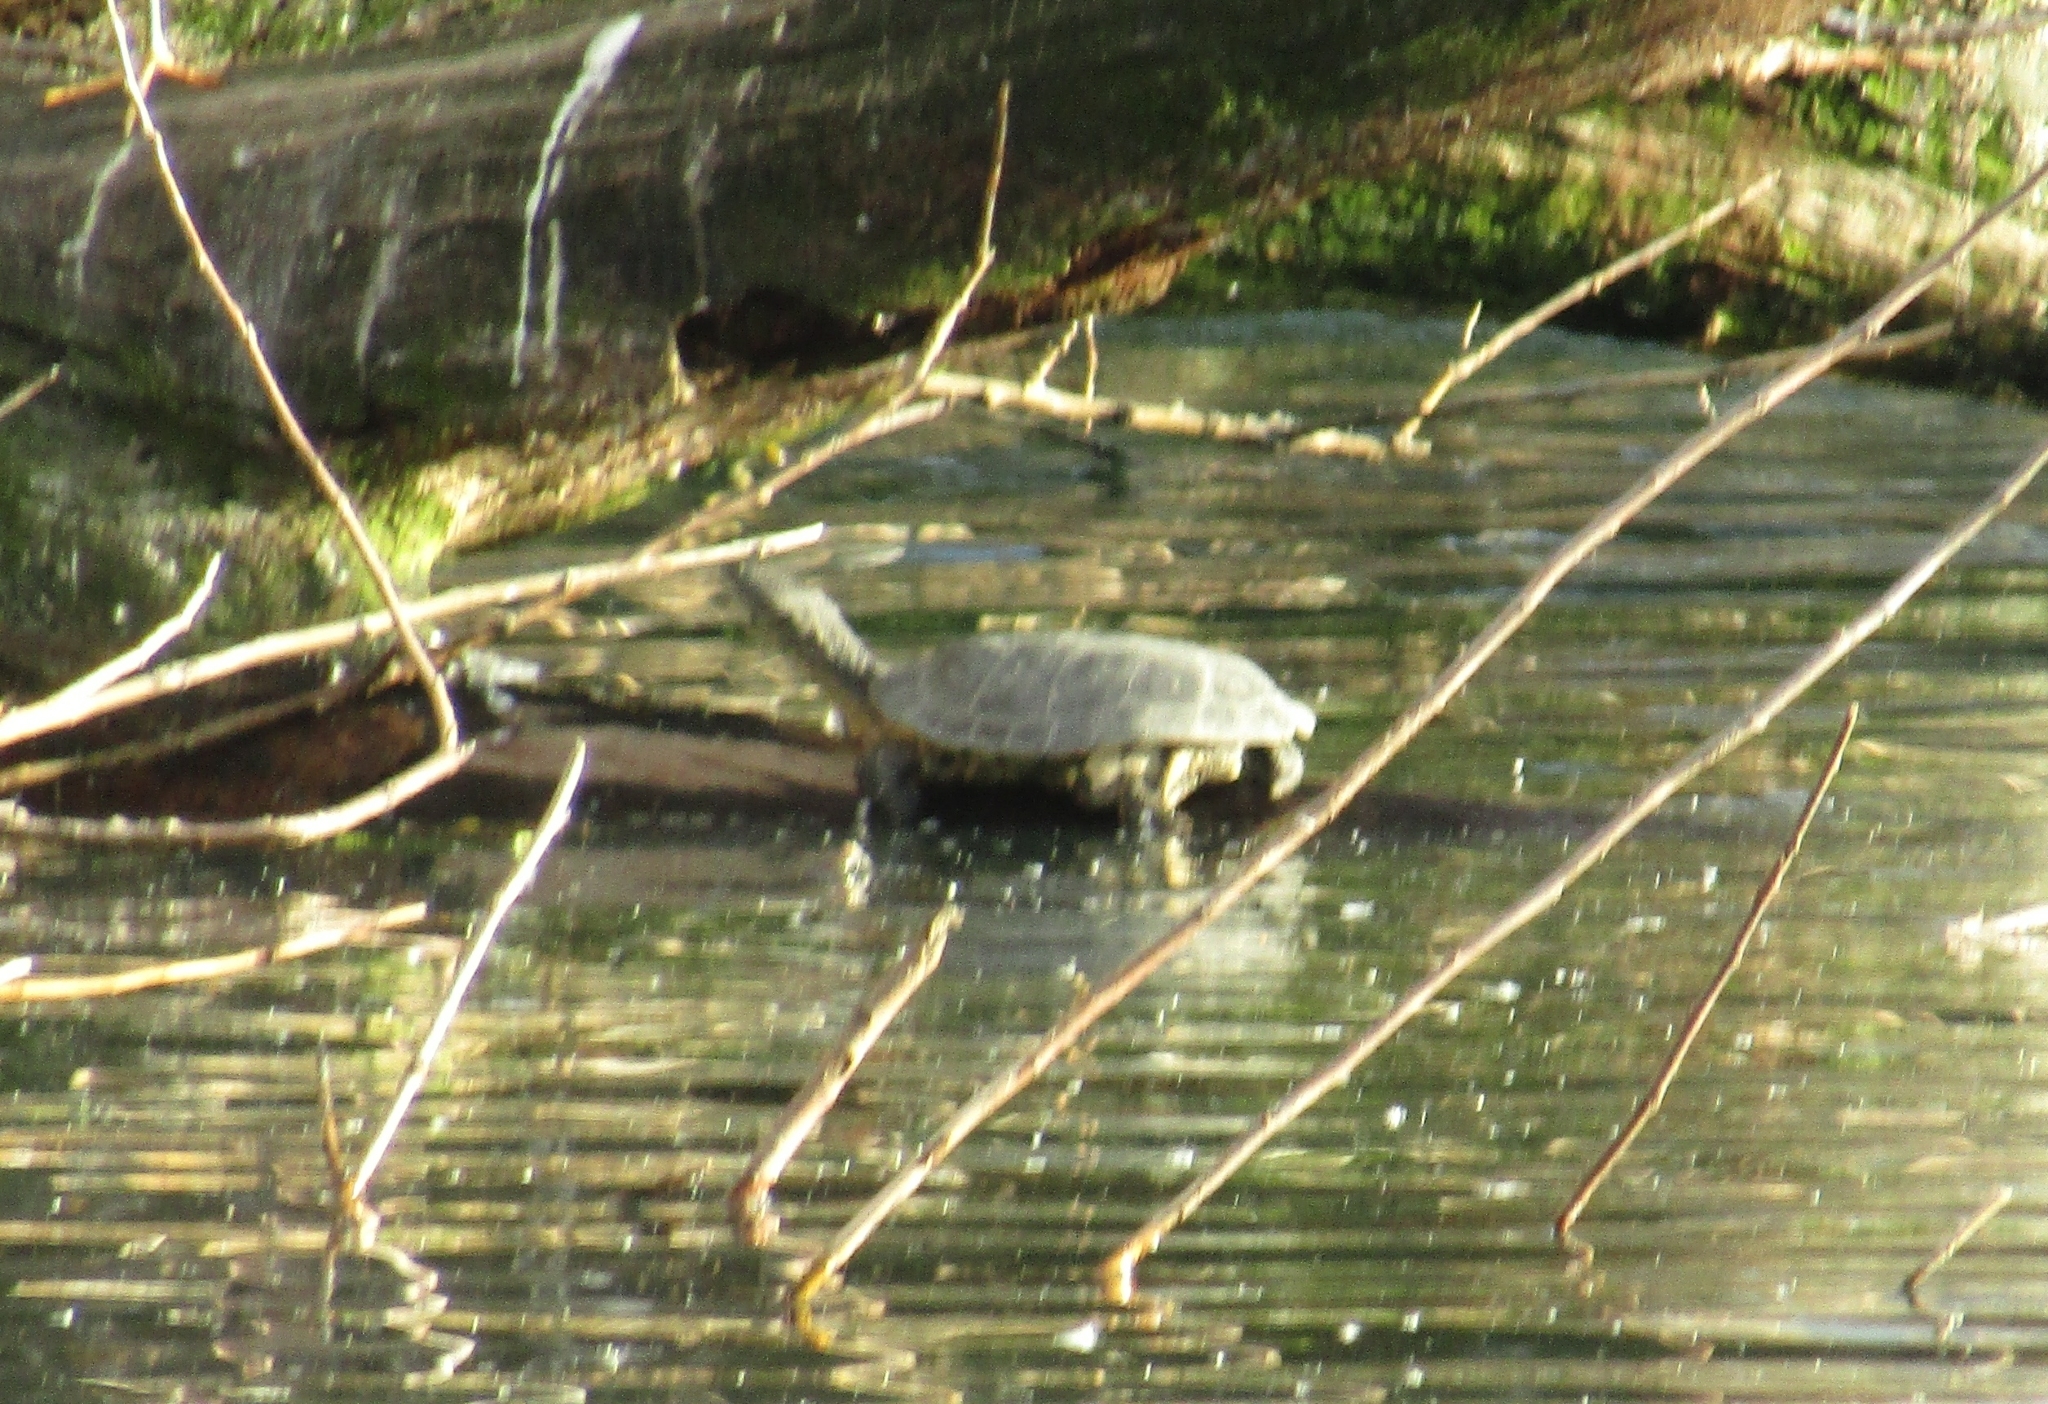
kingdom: Animalia
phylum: Chordata
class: Testudines
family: Chelidae
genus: Phrynops
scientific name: Phrynops hilarii
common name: Side-necked turtle of saint hillaire
